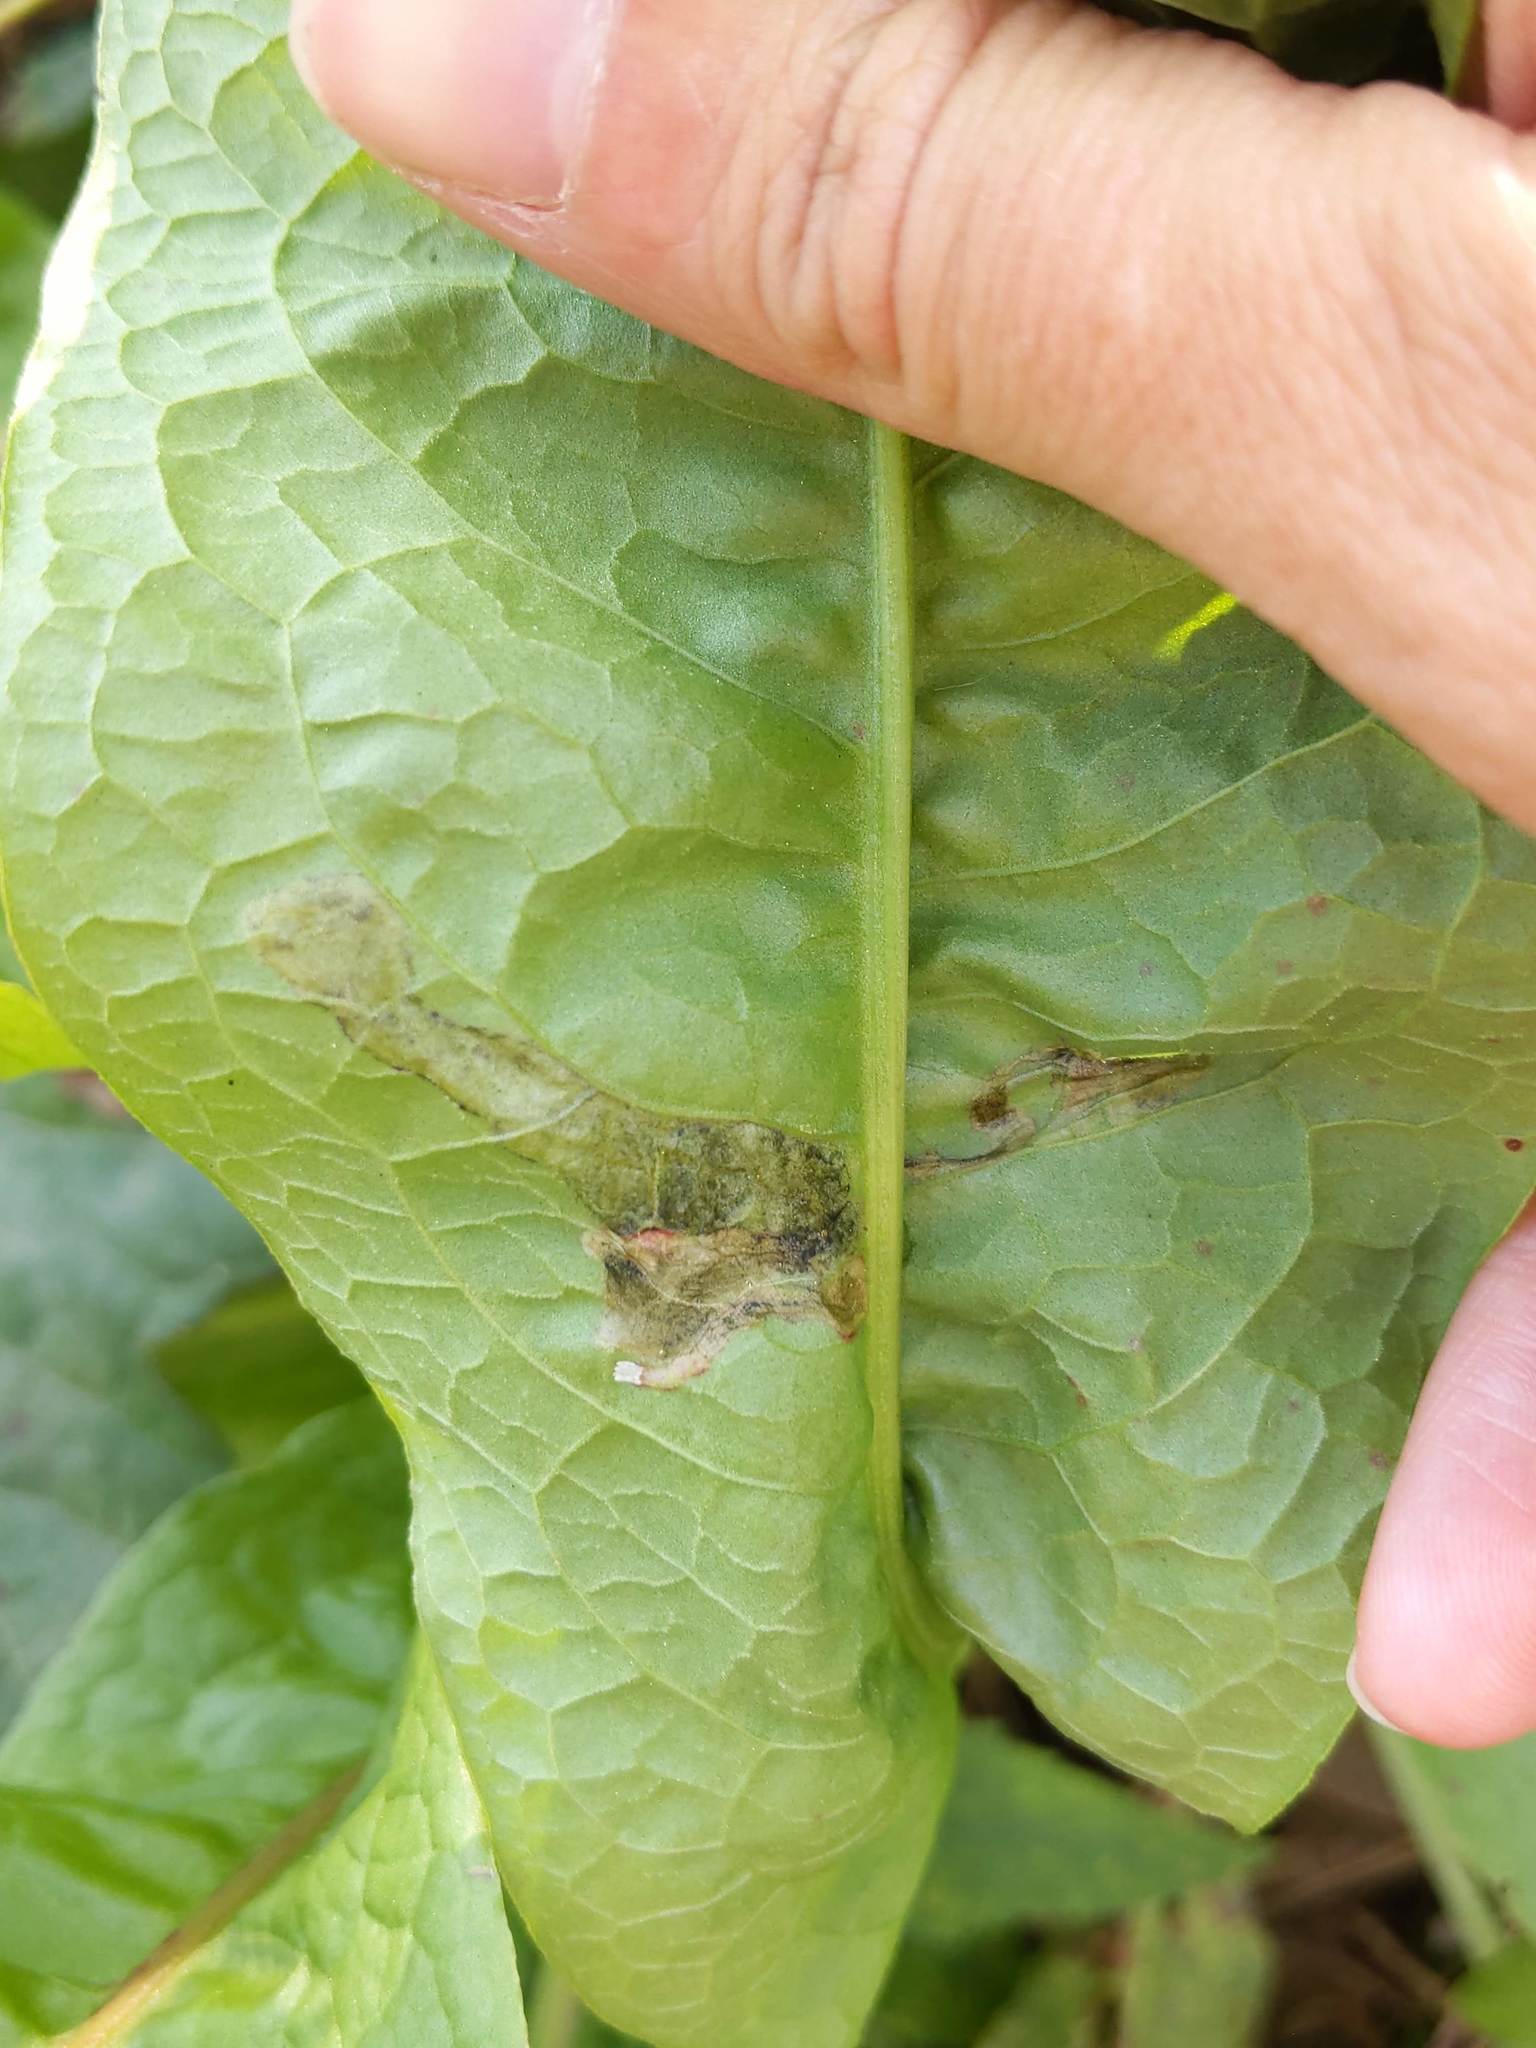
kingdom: Animalia
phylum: Arthropoda
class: Insecta
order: Diptera
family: Anthomyiidae
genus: Pegomya
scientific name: Pegomya bicolor
